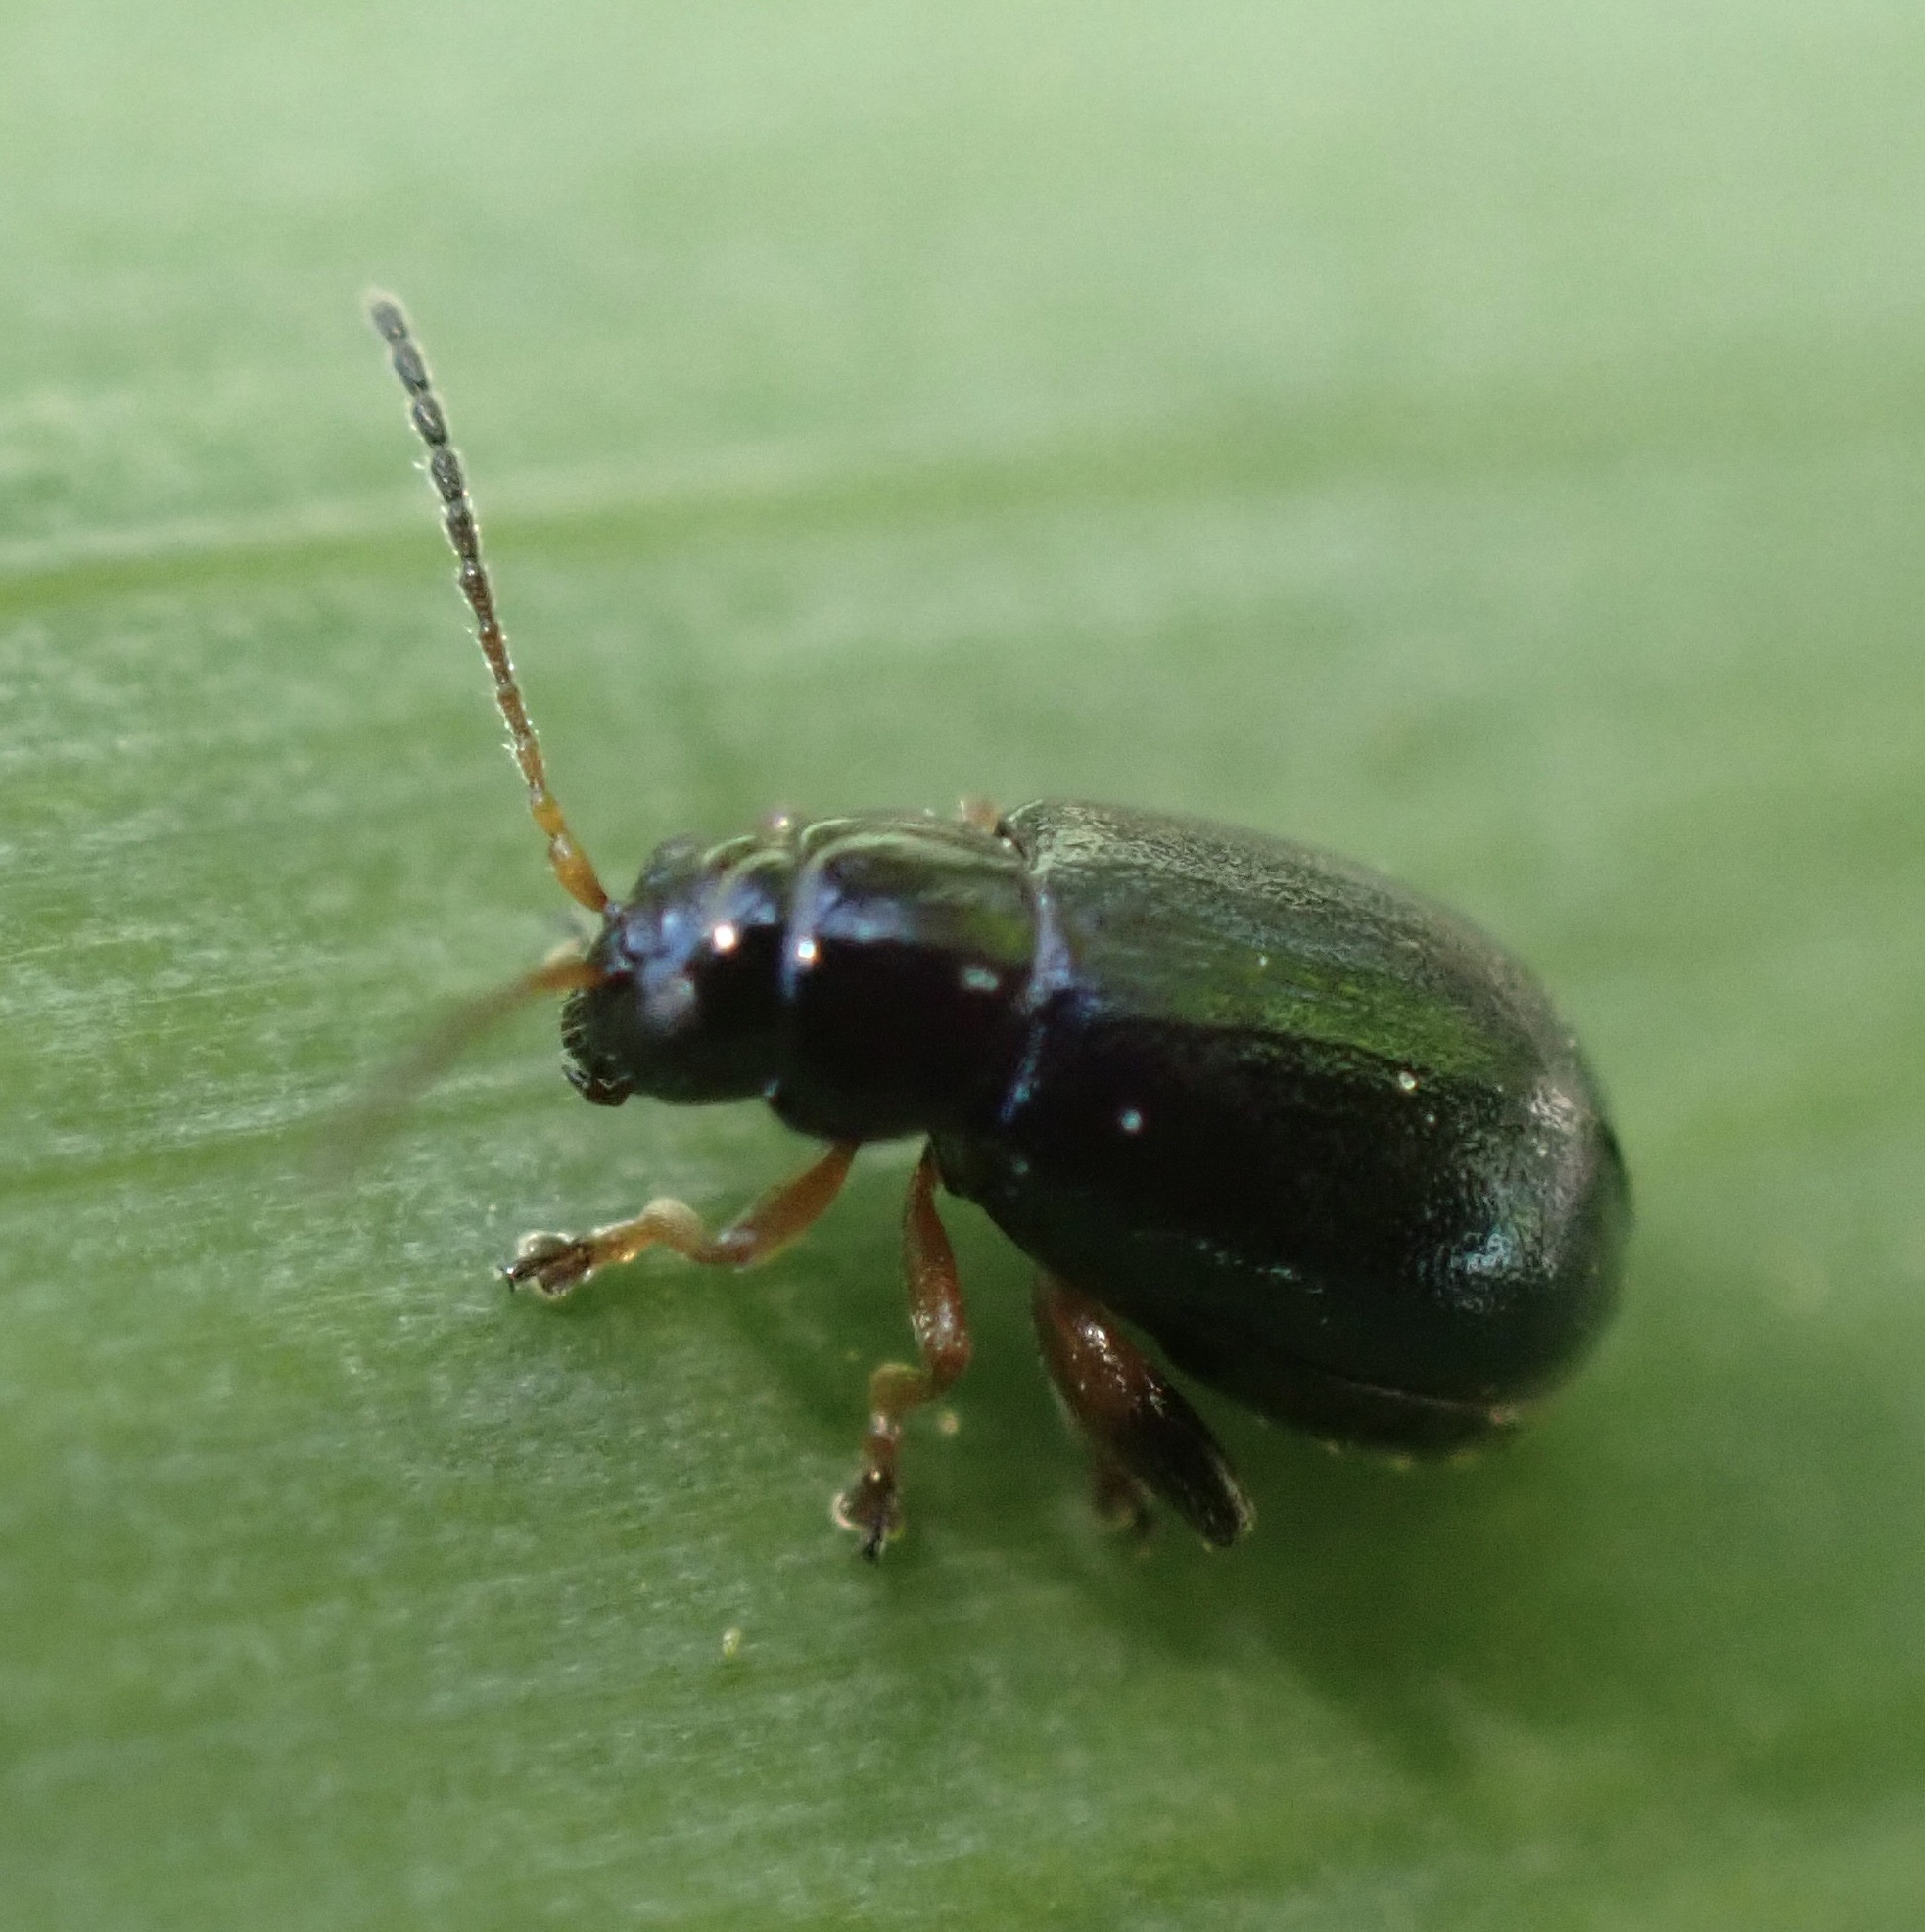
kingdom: Animalia
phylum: Arthropoda
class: Insecta
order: Coleoptera
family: Chrysomelidae
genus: Aphthona
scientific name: Aphthona nonstriata
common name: Iris flea beetle
